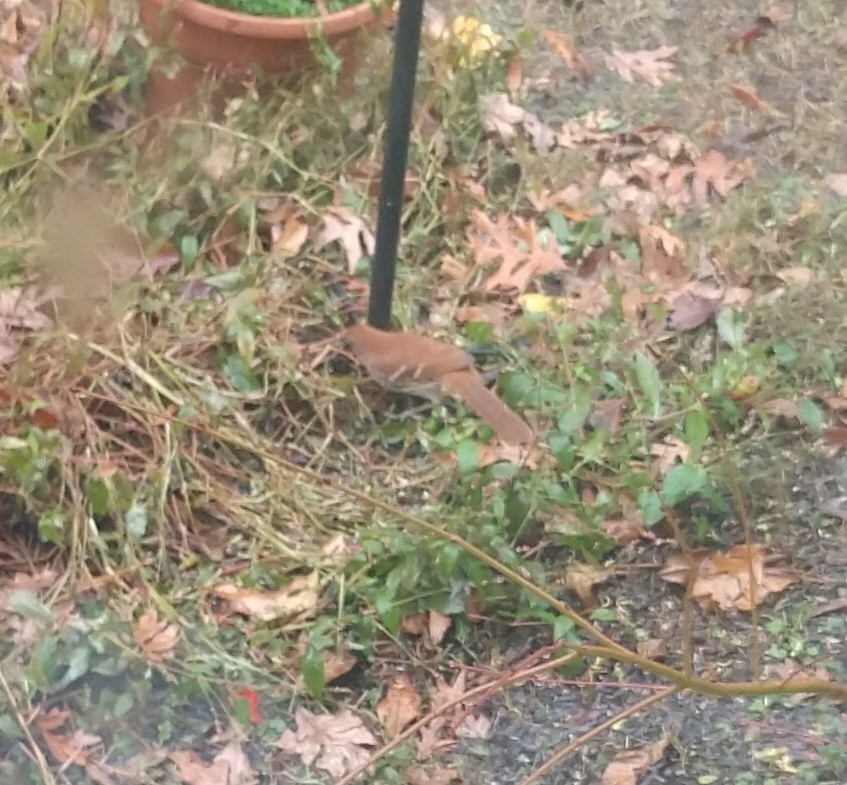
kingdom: Animalia
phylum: Chordata
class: Aves
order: Passeriformes
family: Mimidae
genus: Toxostoma
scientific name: Toxostoma rufum
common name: Brown thrasher
